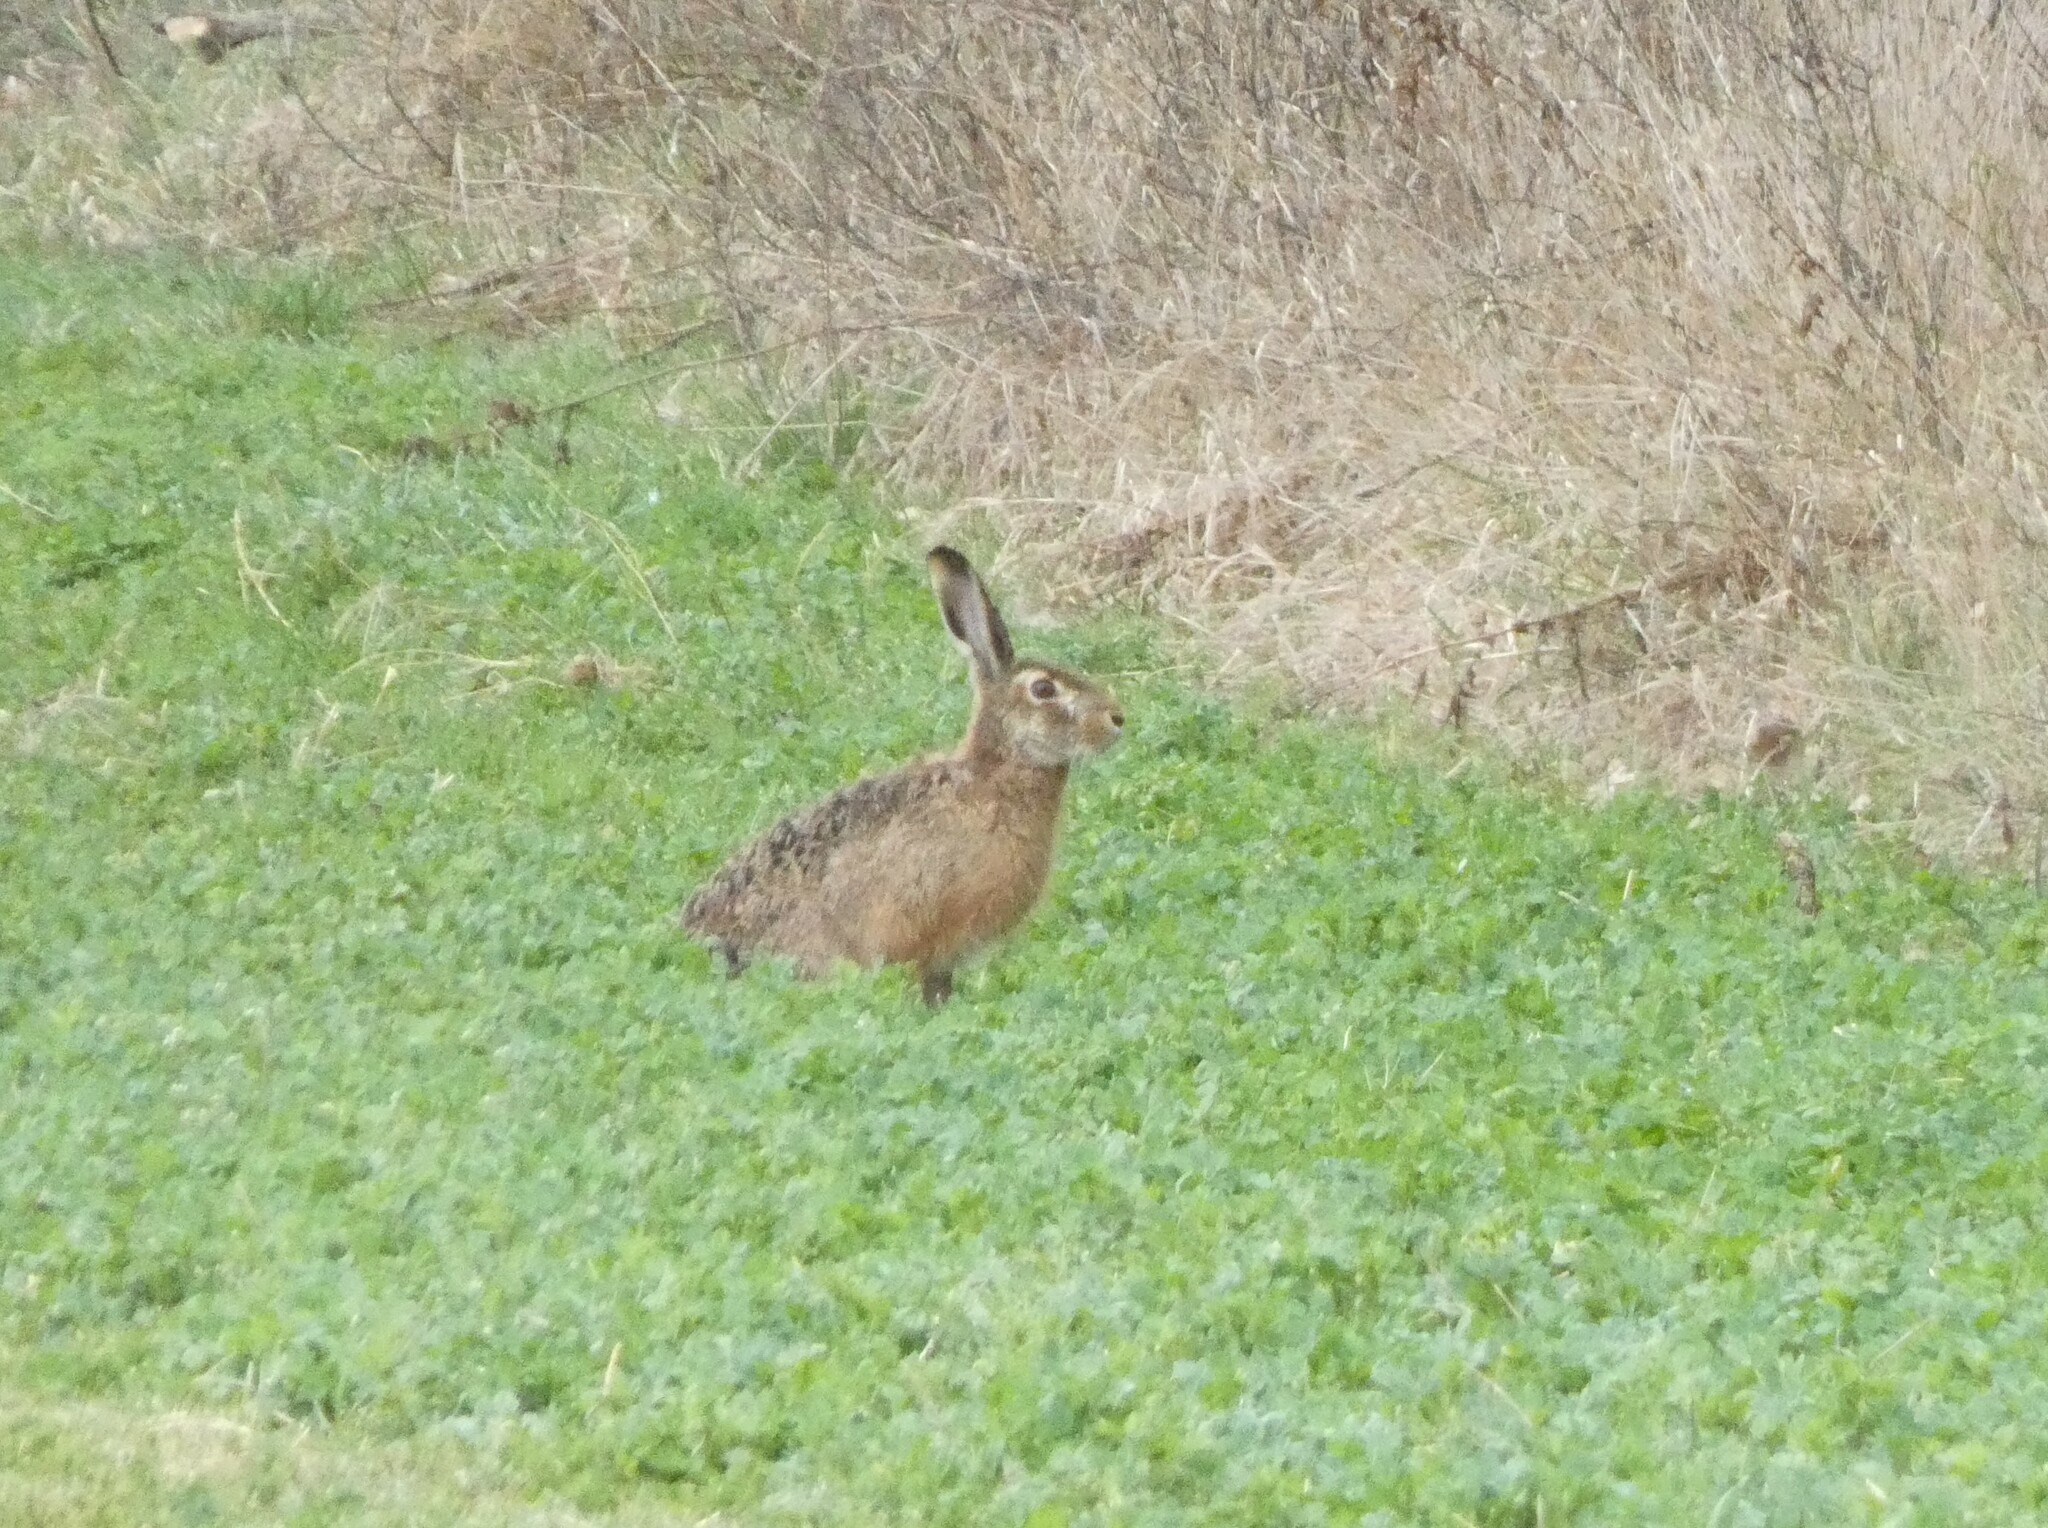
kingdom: Animalia
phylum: Chordata
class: Mammalia
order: Lagomorpha
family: Leporidae
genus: Lepus
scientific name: Lepus europaeus
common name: European hare
